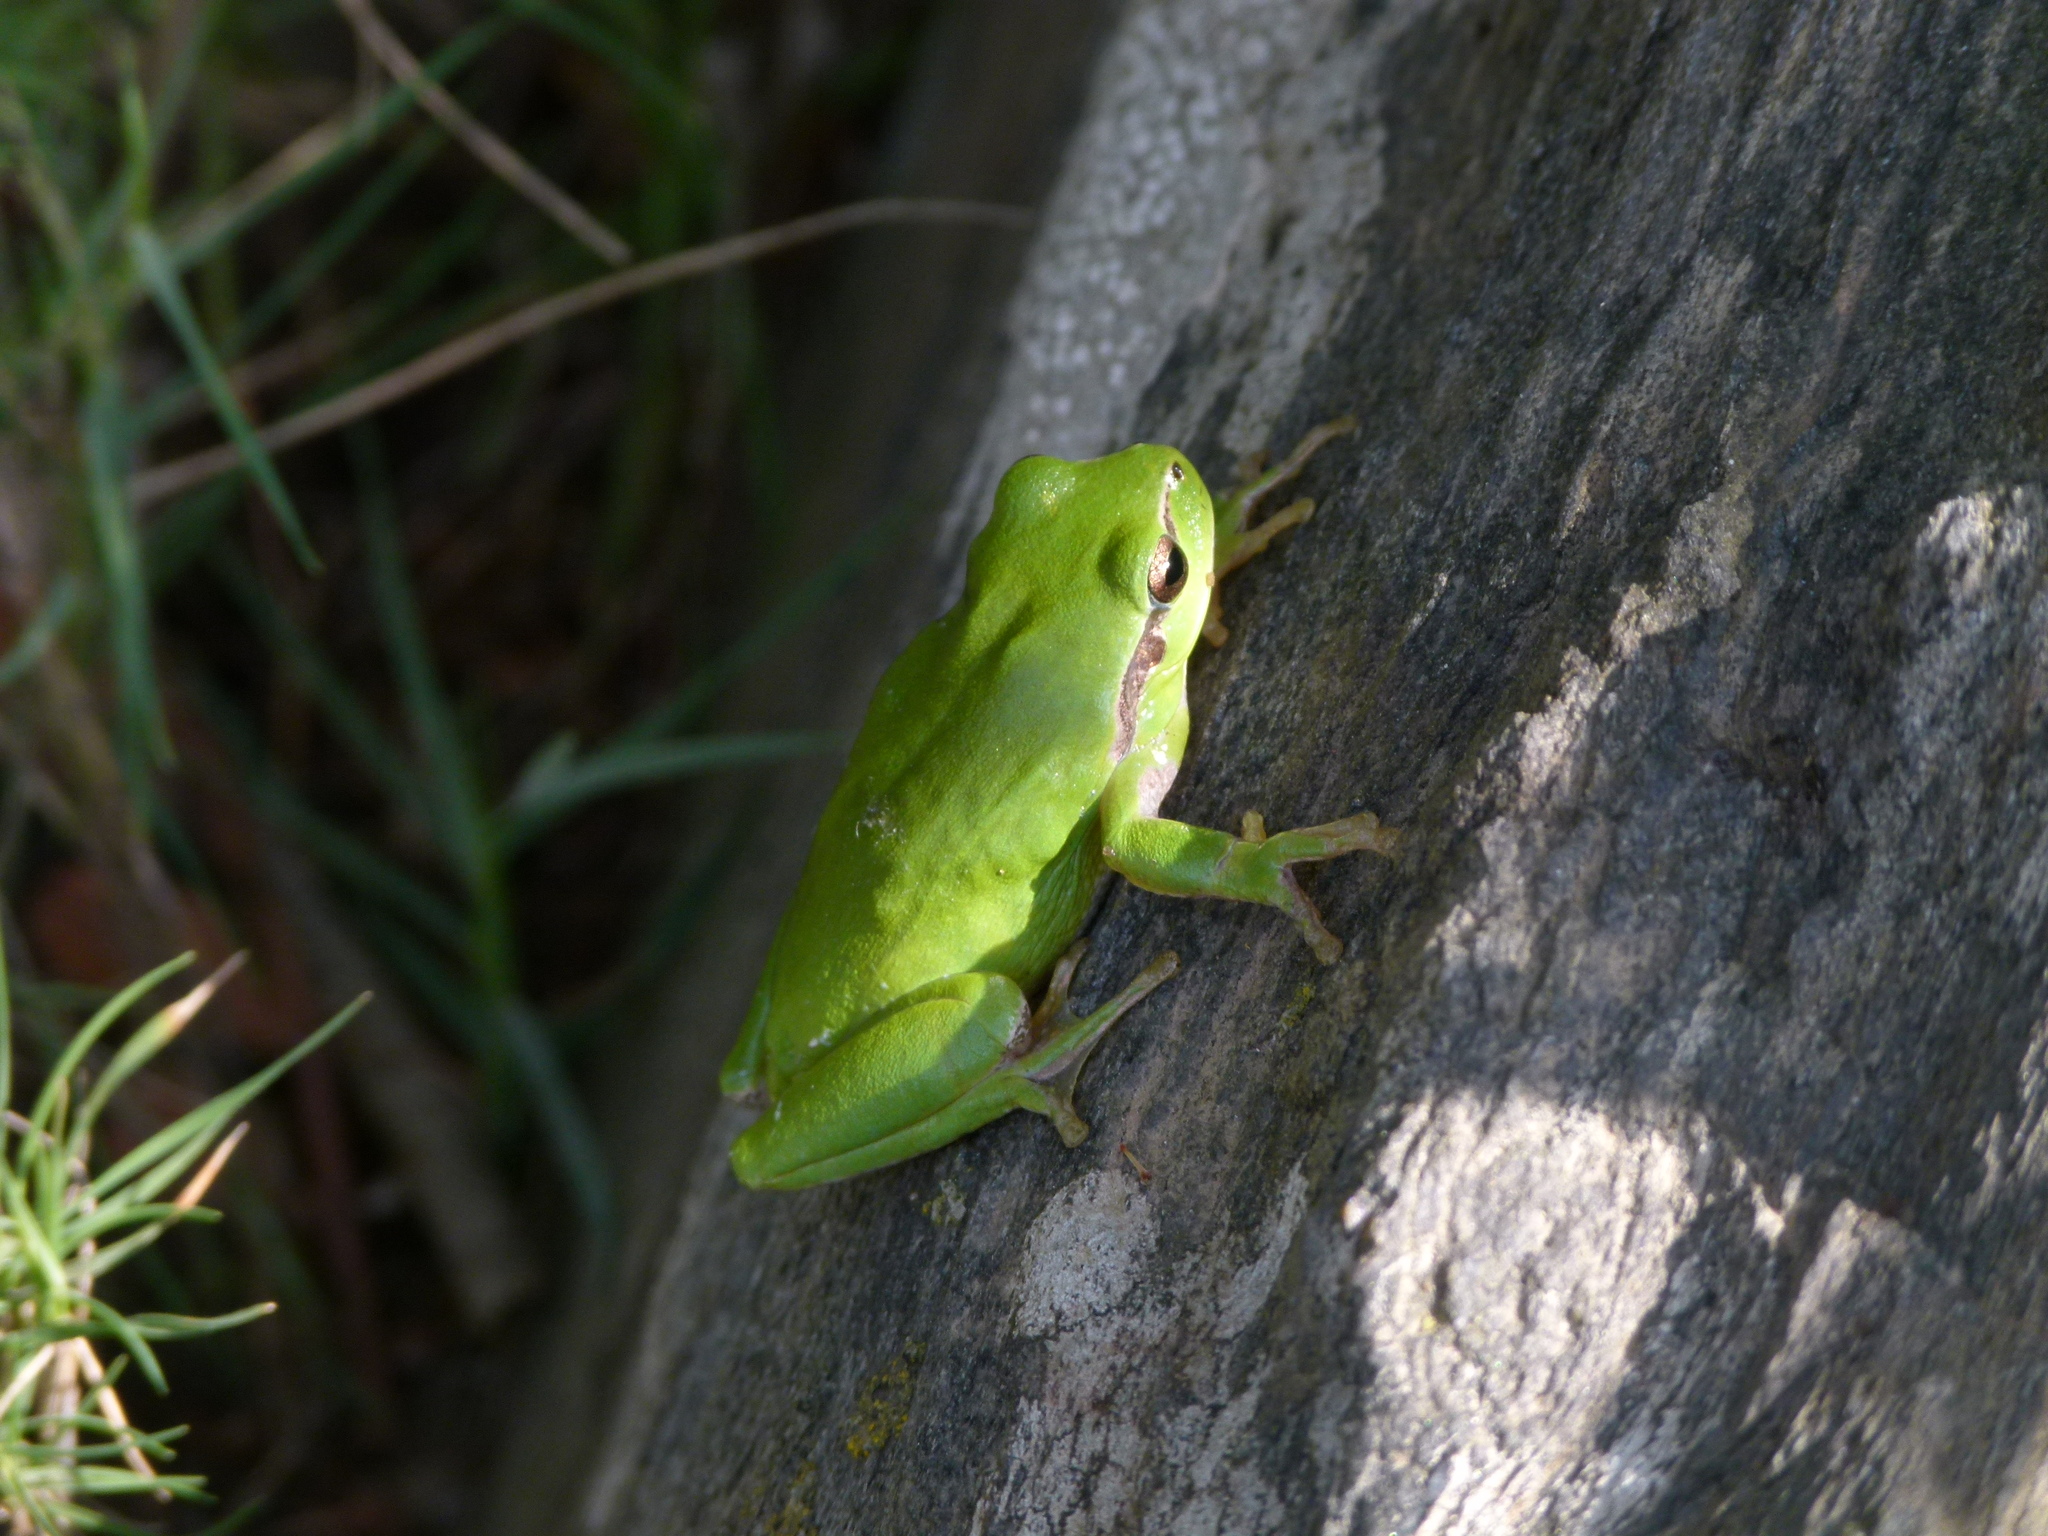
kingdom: Animalia
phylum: Chordata
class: Amphibia
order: Anura
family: Hylidae
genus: Hyla
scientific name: Hyla meridionalis
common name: Stripeless tree frog
